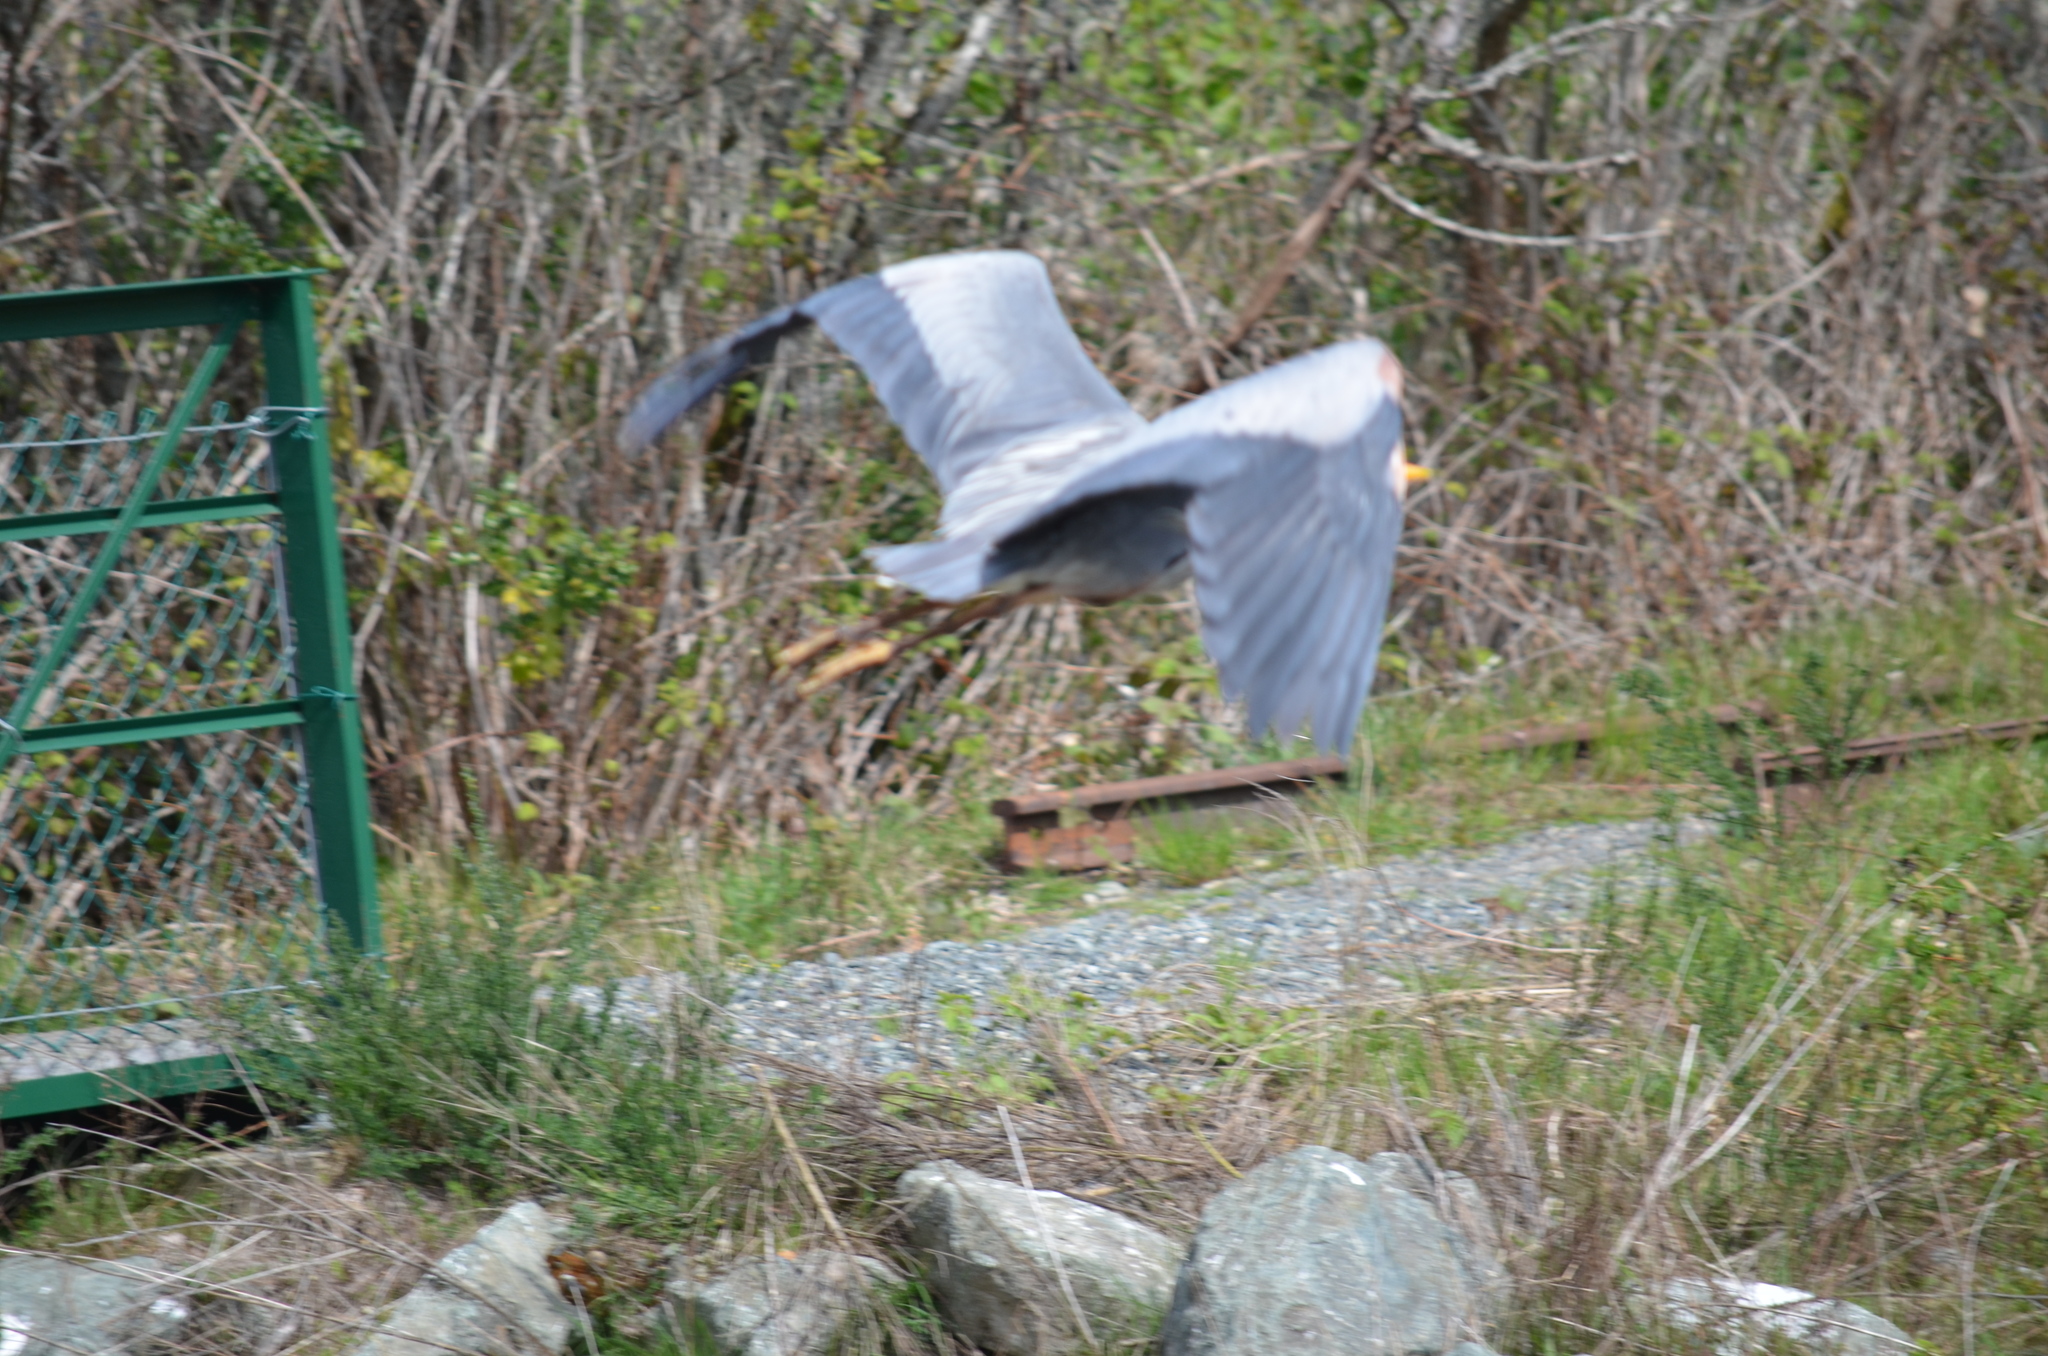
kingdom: Animalia
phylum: Chordata
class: Aves
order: Pelecaniformes
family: Ardeidae
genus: Ardea
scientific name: Ardea herodias
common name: Great blue heron
